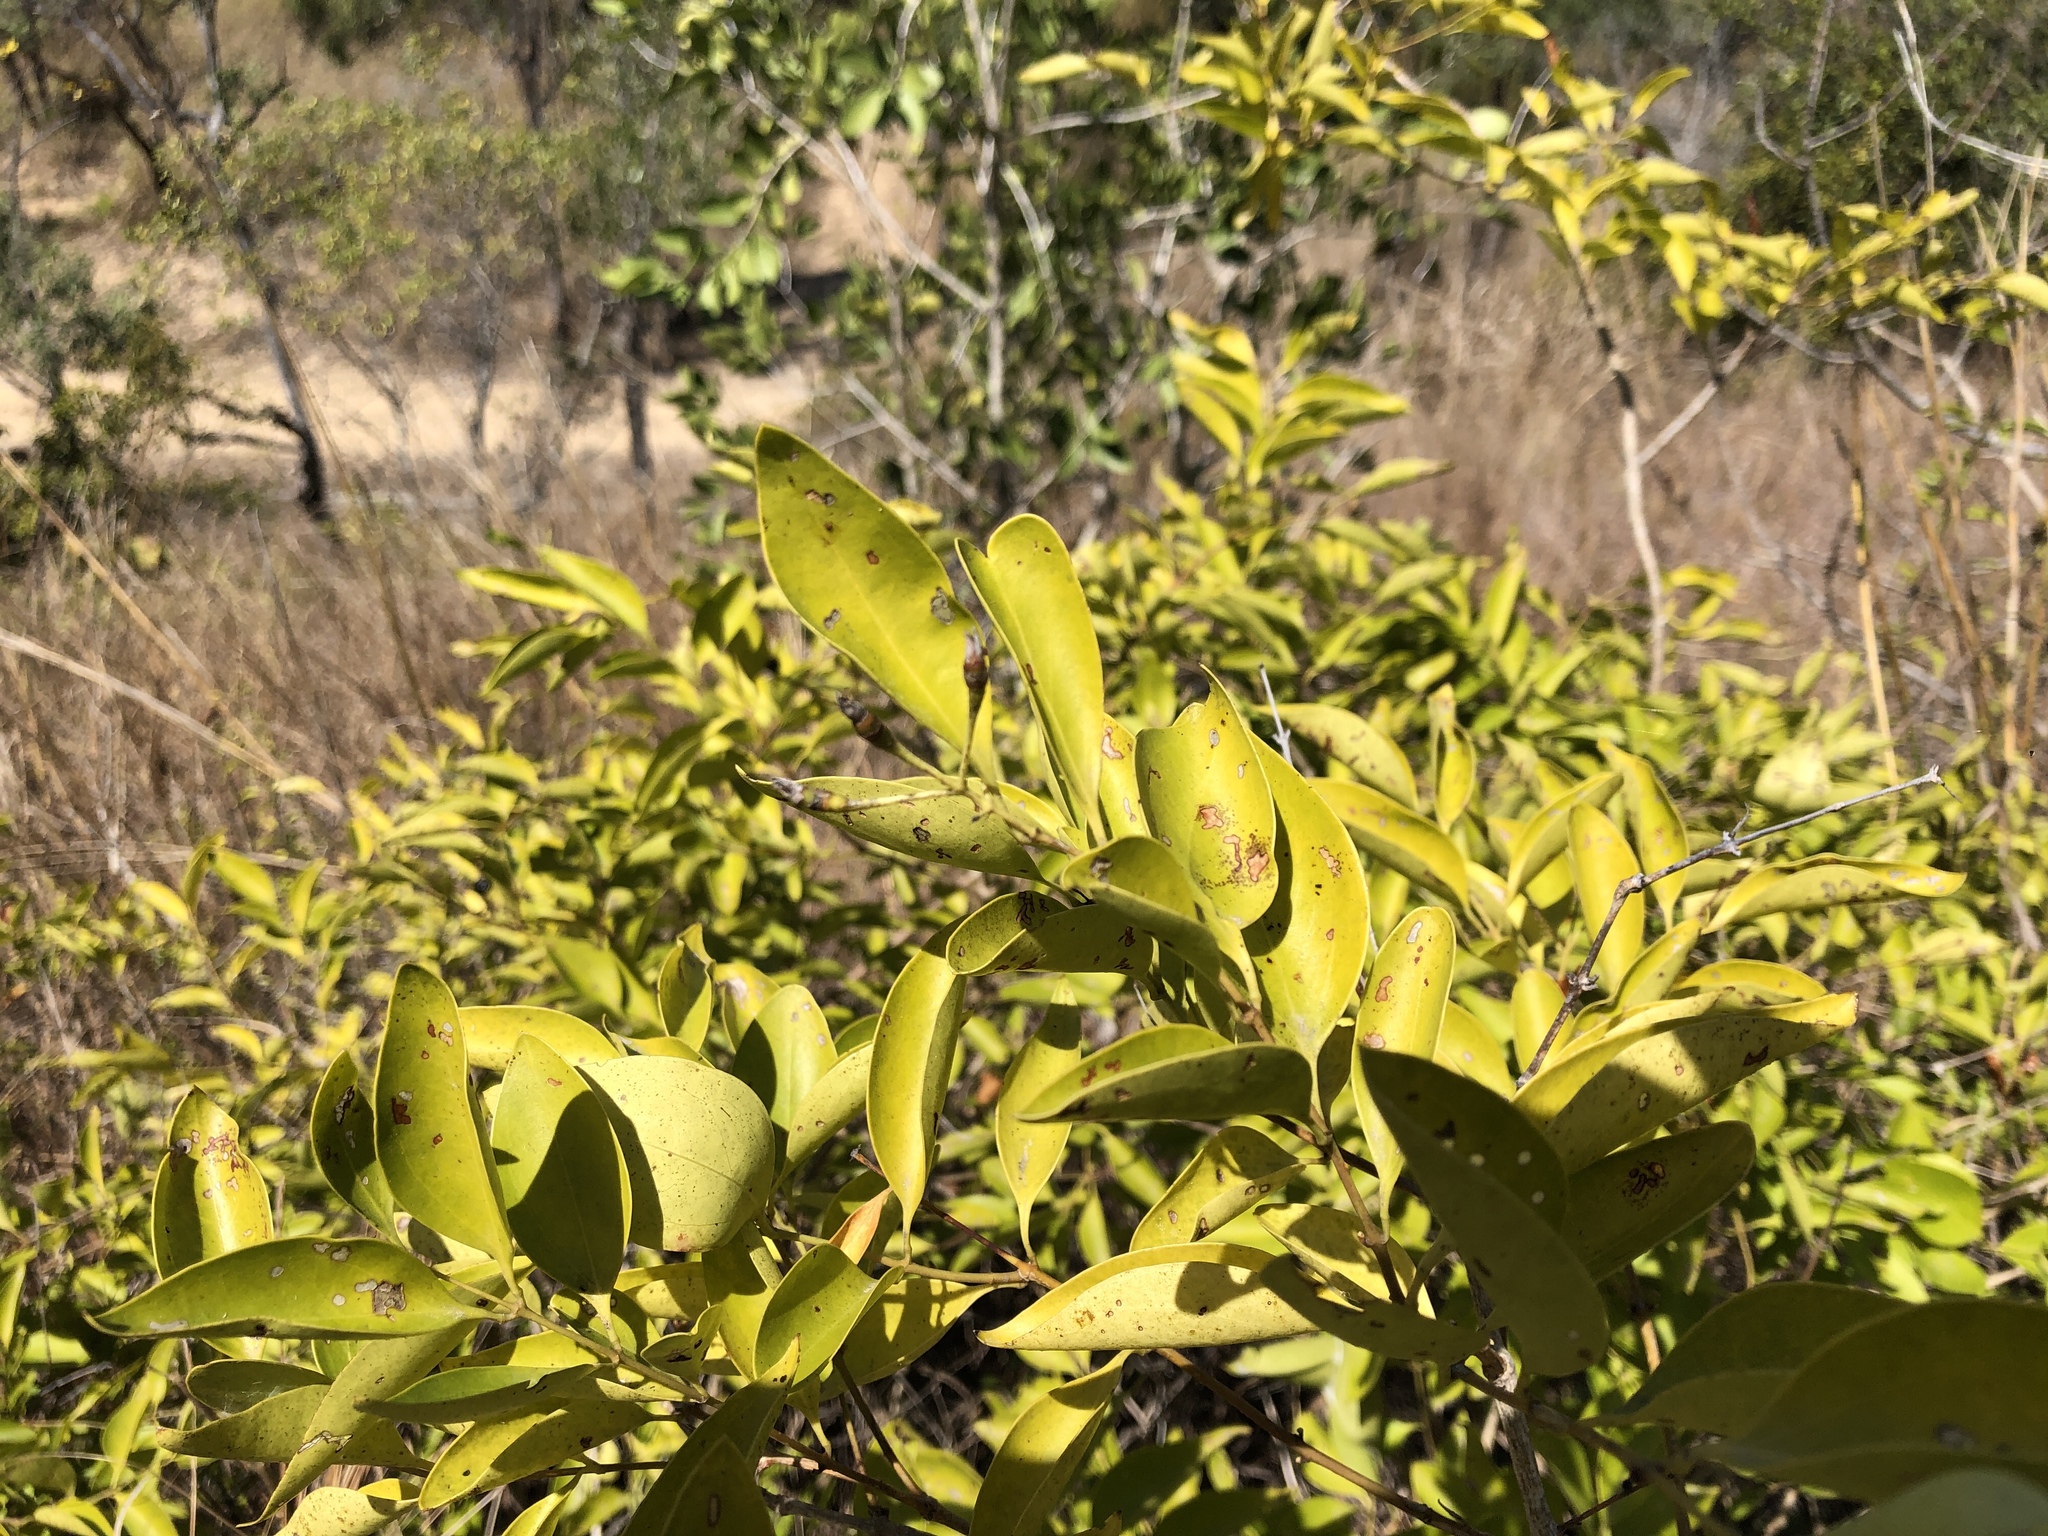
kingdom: Plantae
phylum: Tracheophyta
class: Magnoliopsida
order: Lamiales
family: Oleaceae
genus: Jasminum
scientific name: Jasminum simplicifolium
